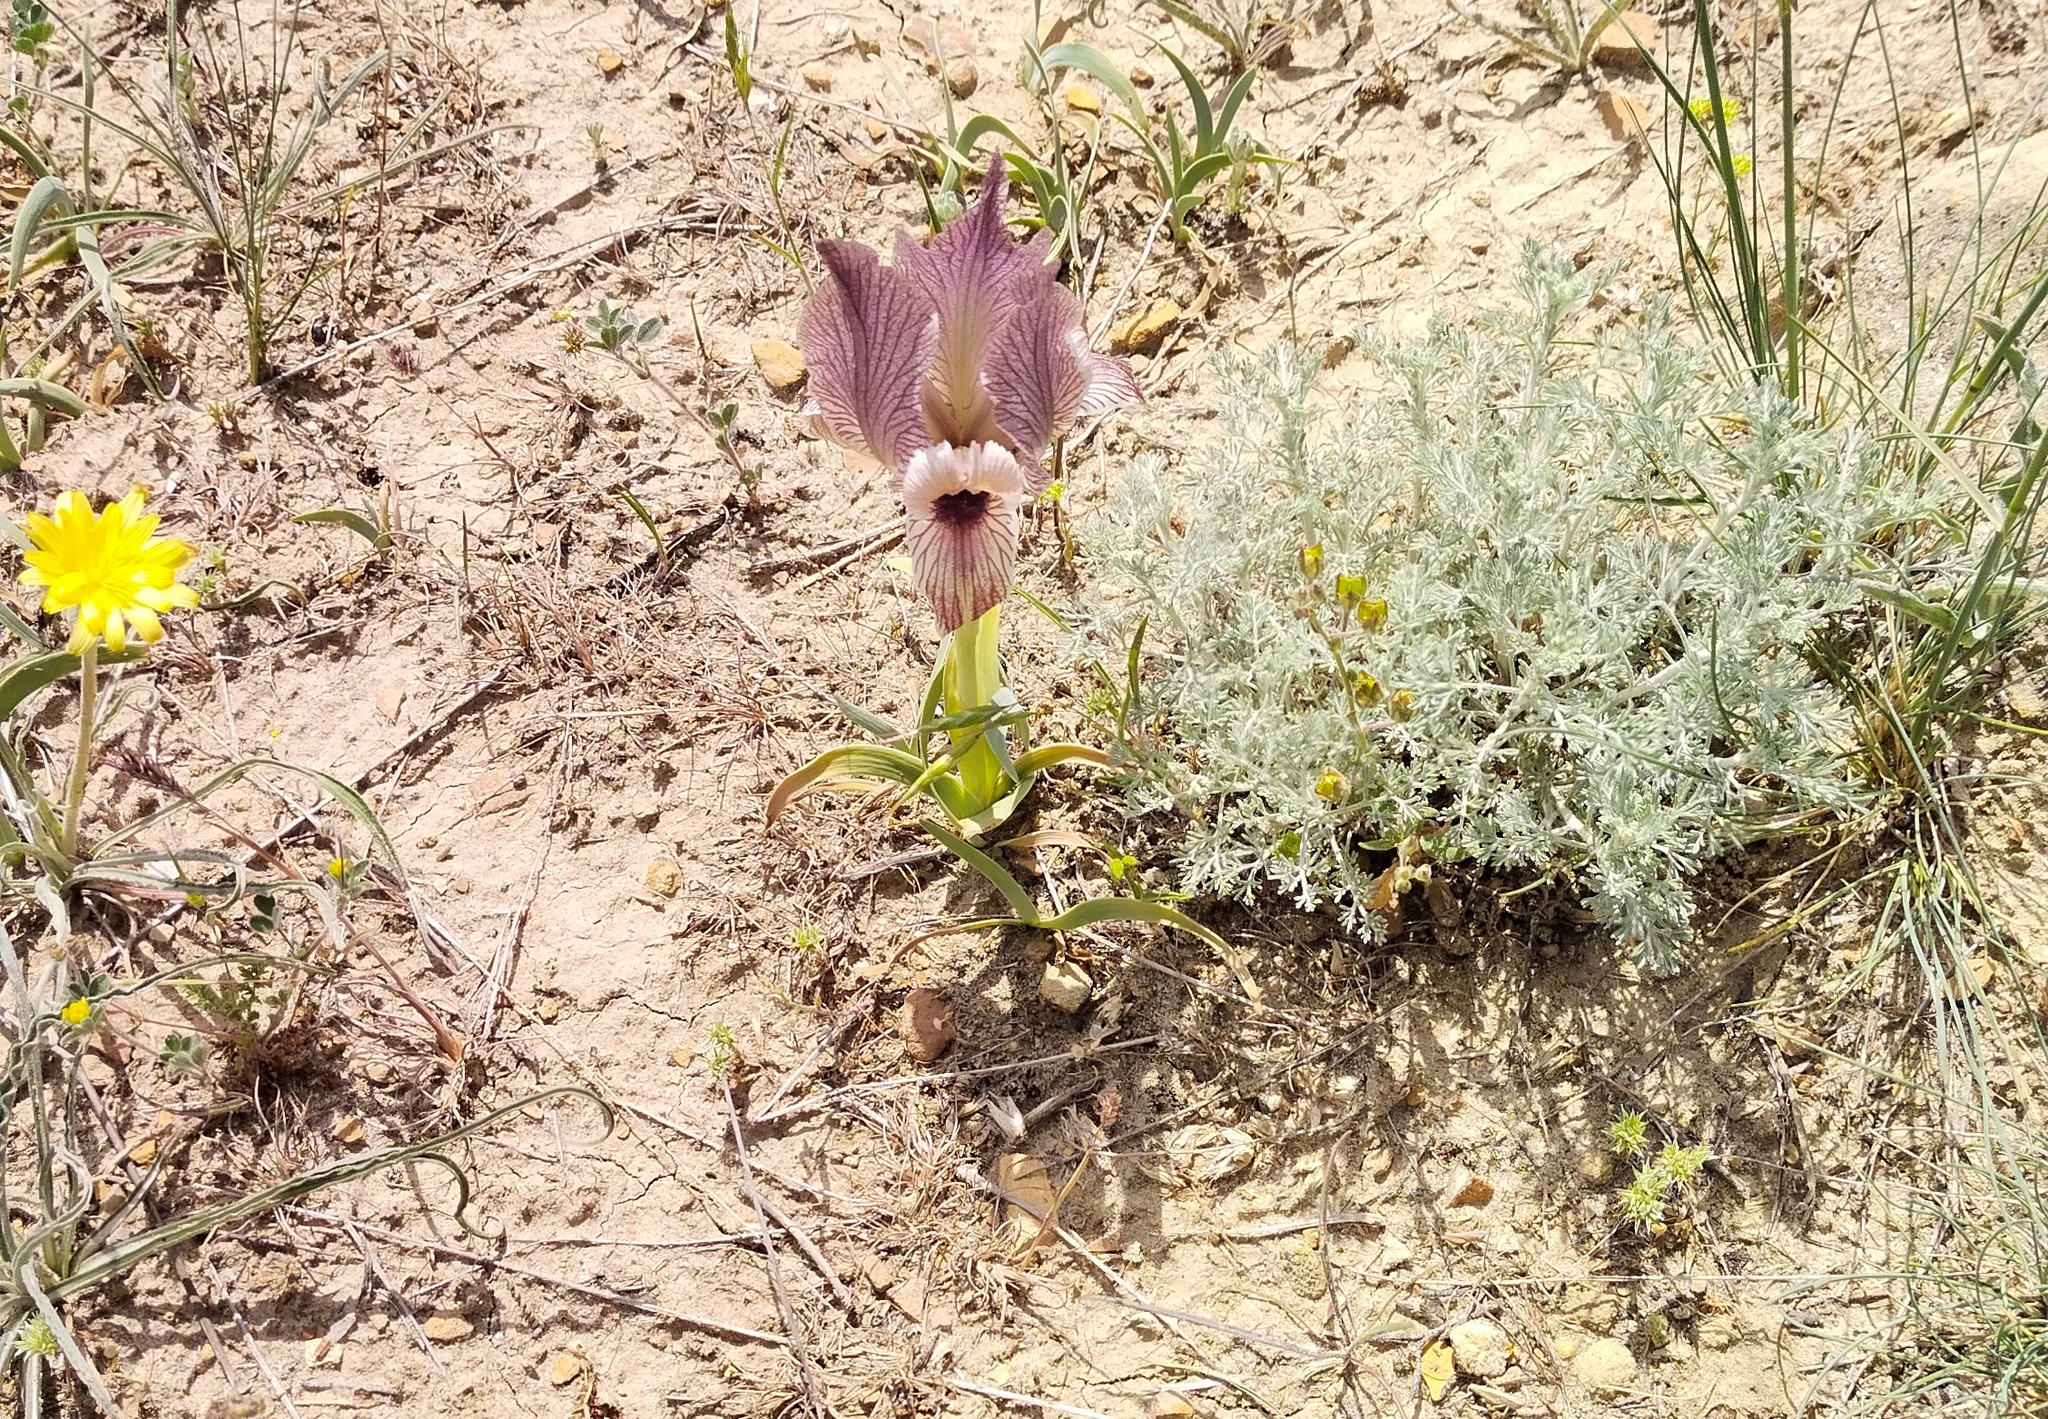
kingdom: Plantae
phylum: Tracheophyta
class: Liliopsida
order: Asparagales
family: Iridaceae
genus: Iris
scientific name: Iris acutiloba
